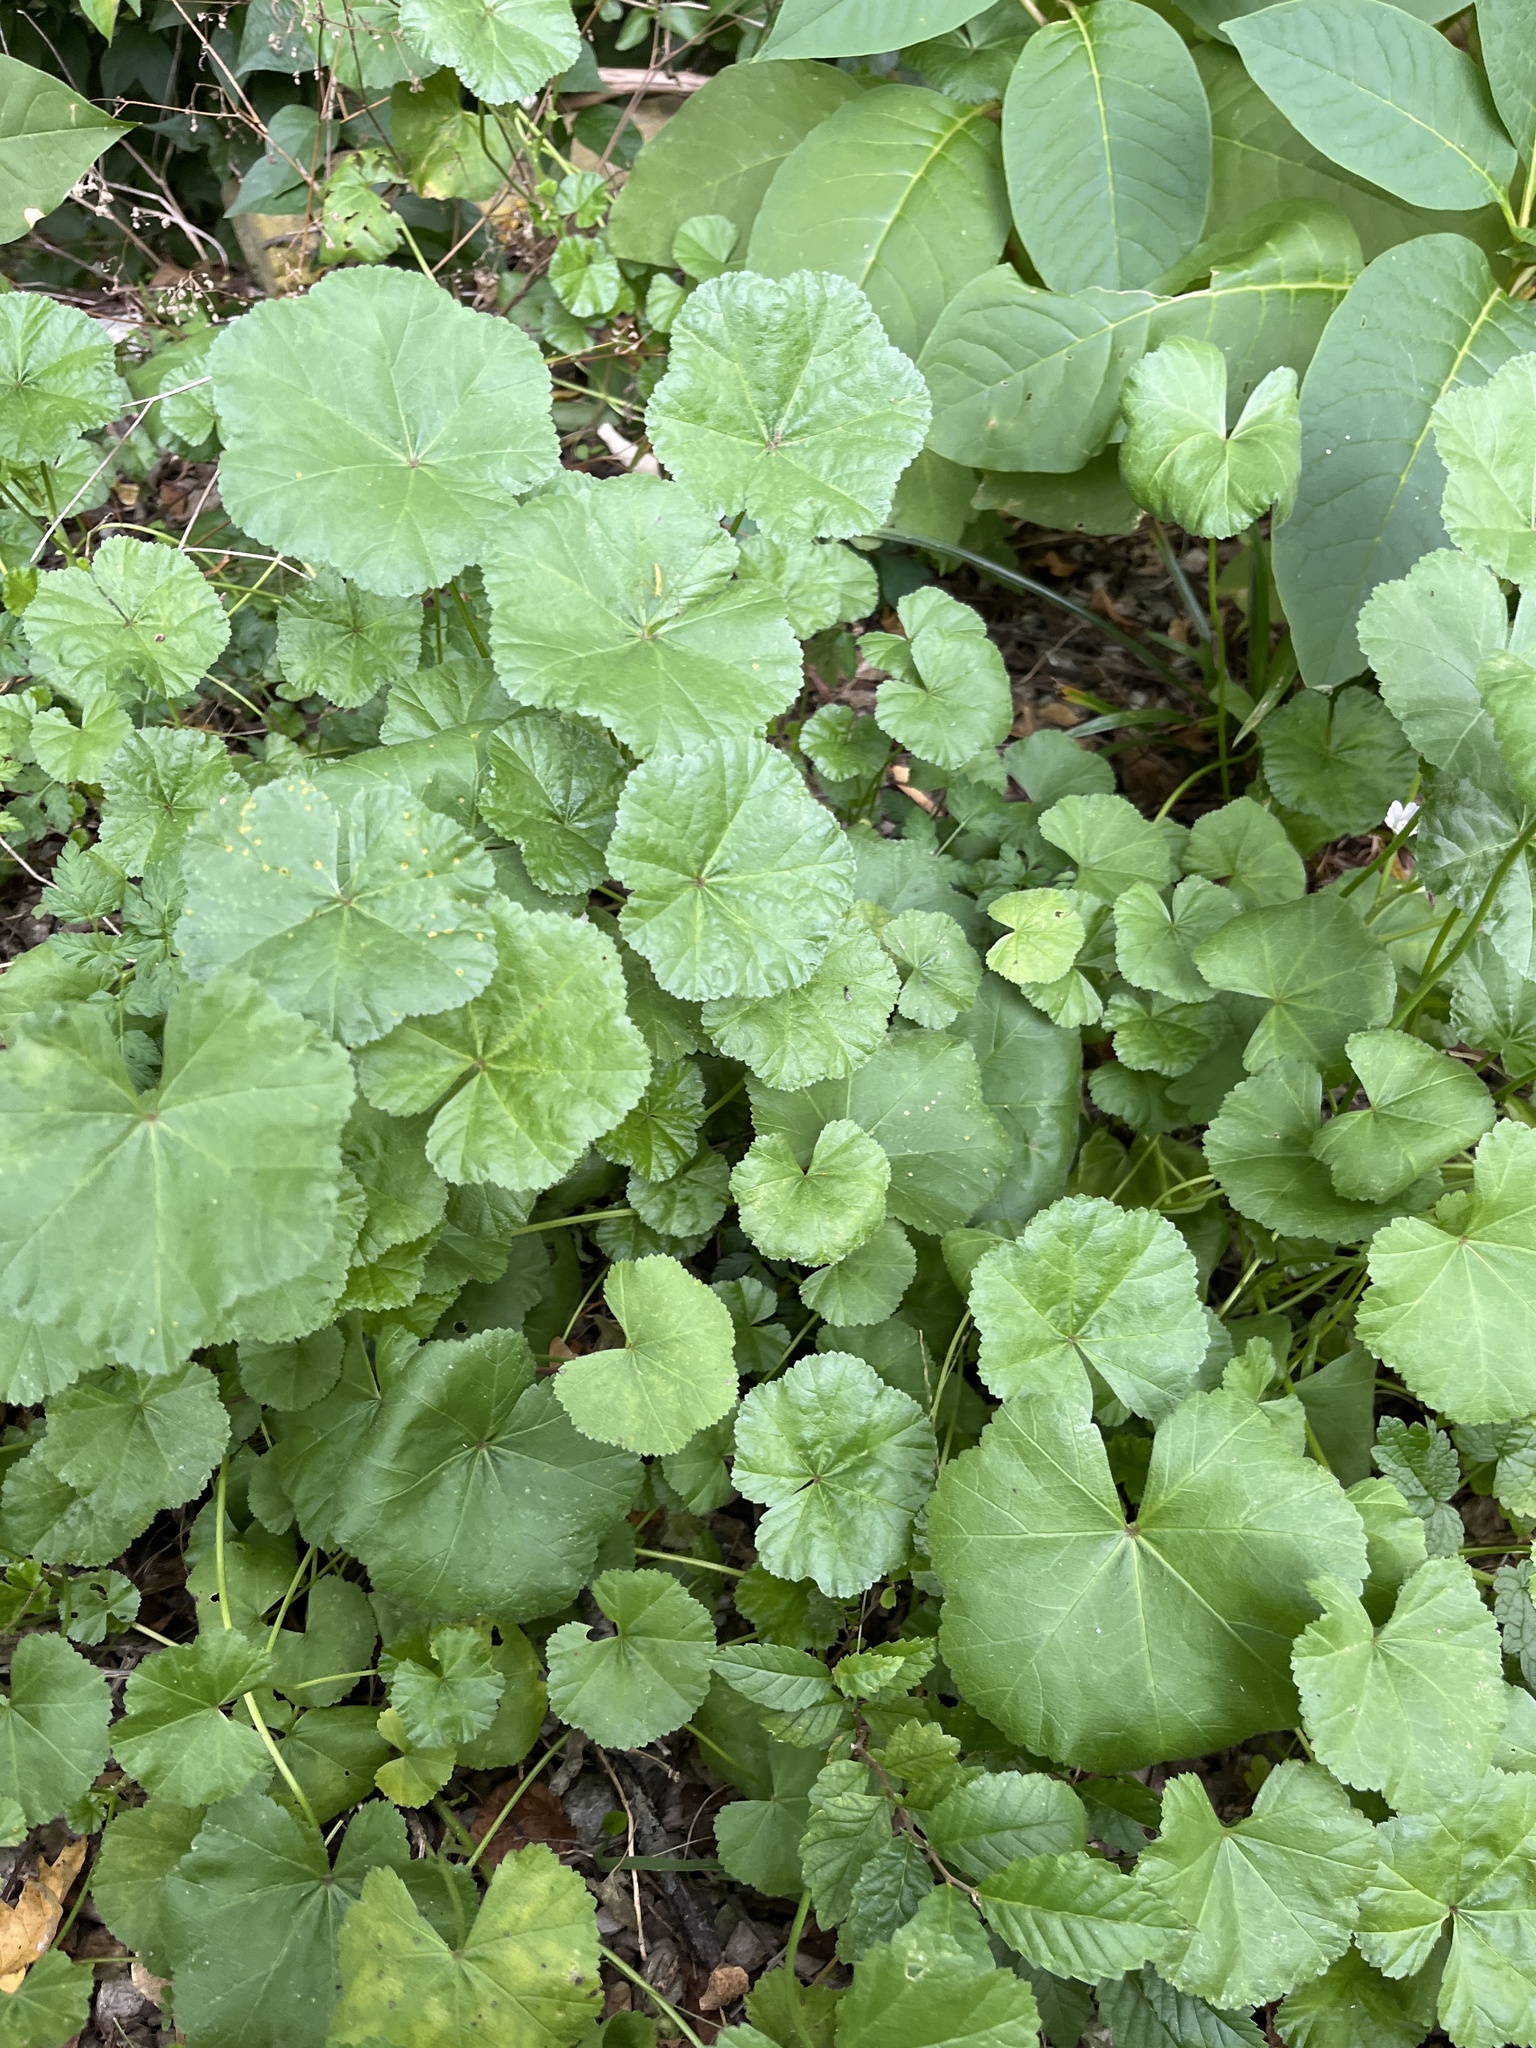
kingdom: Plantae
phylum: Tracheophyta
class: Magnoliopsida
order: Malvales
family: Malvaceae
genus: Malva
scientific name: Malva neglecta
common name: Common mallow
